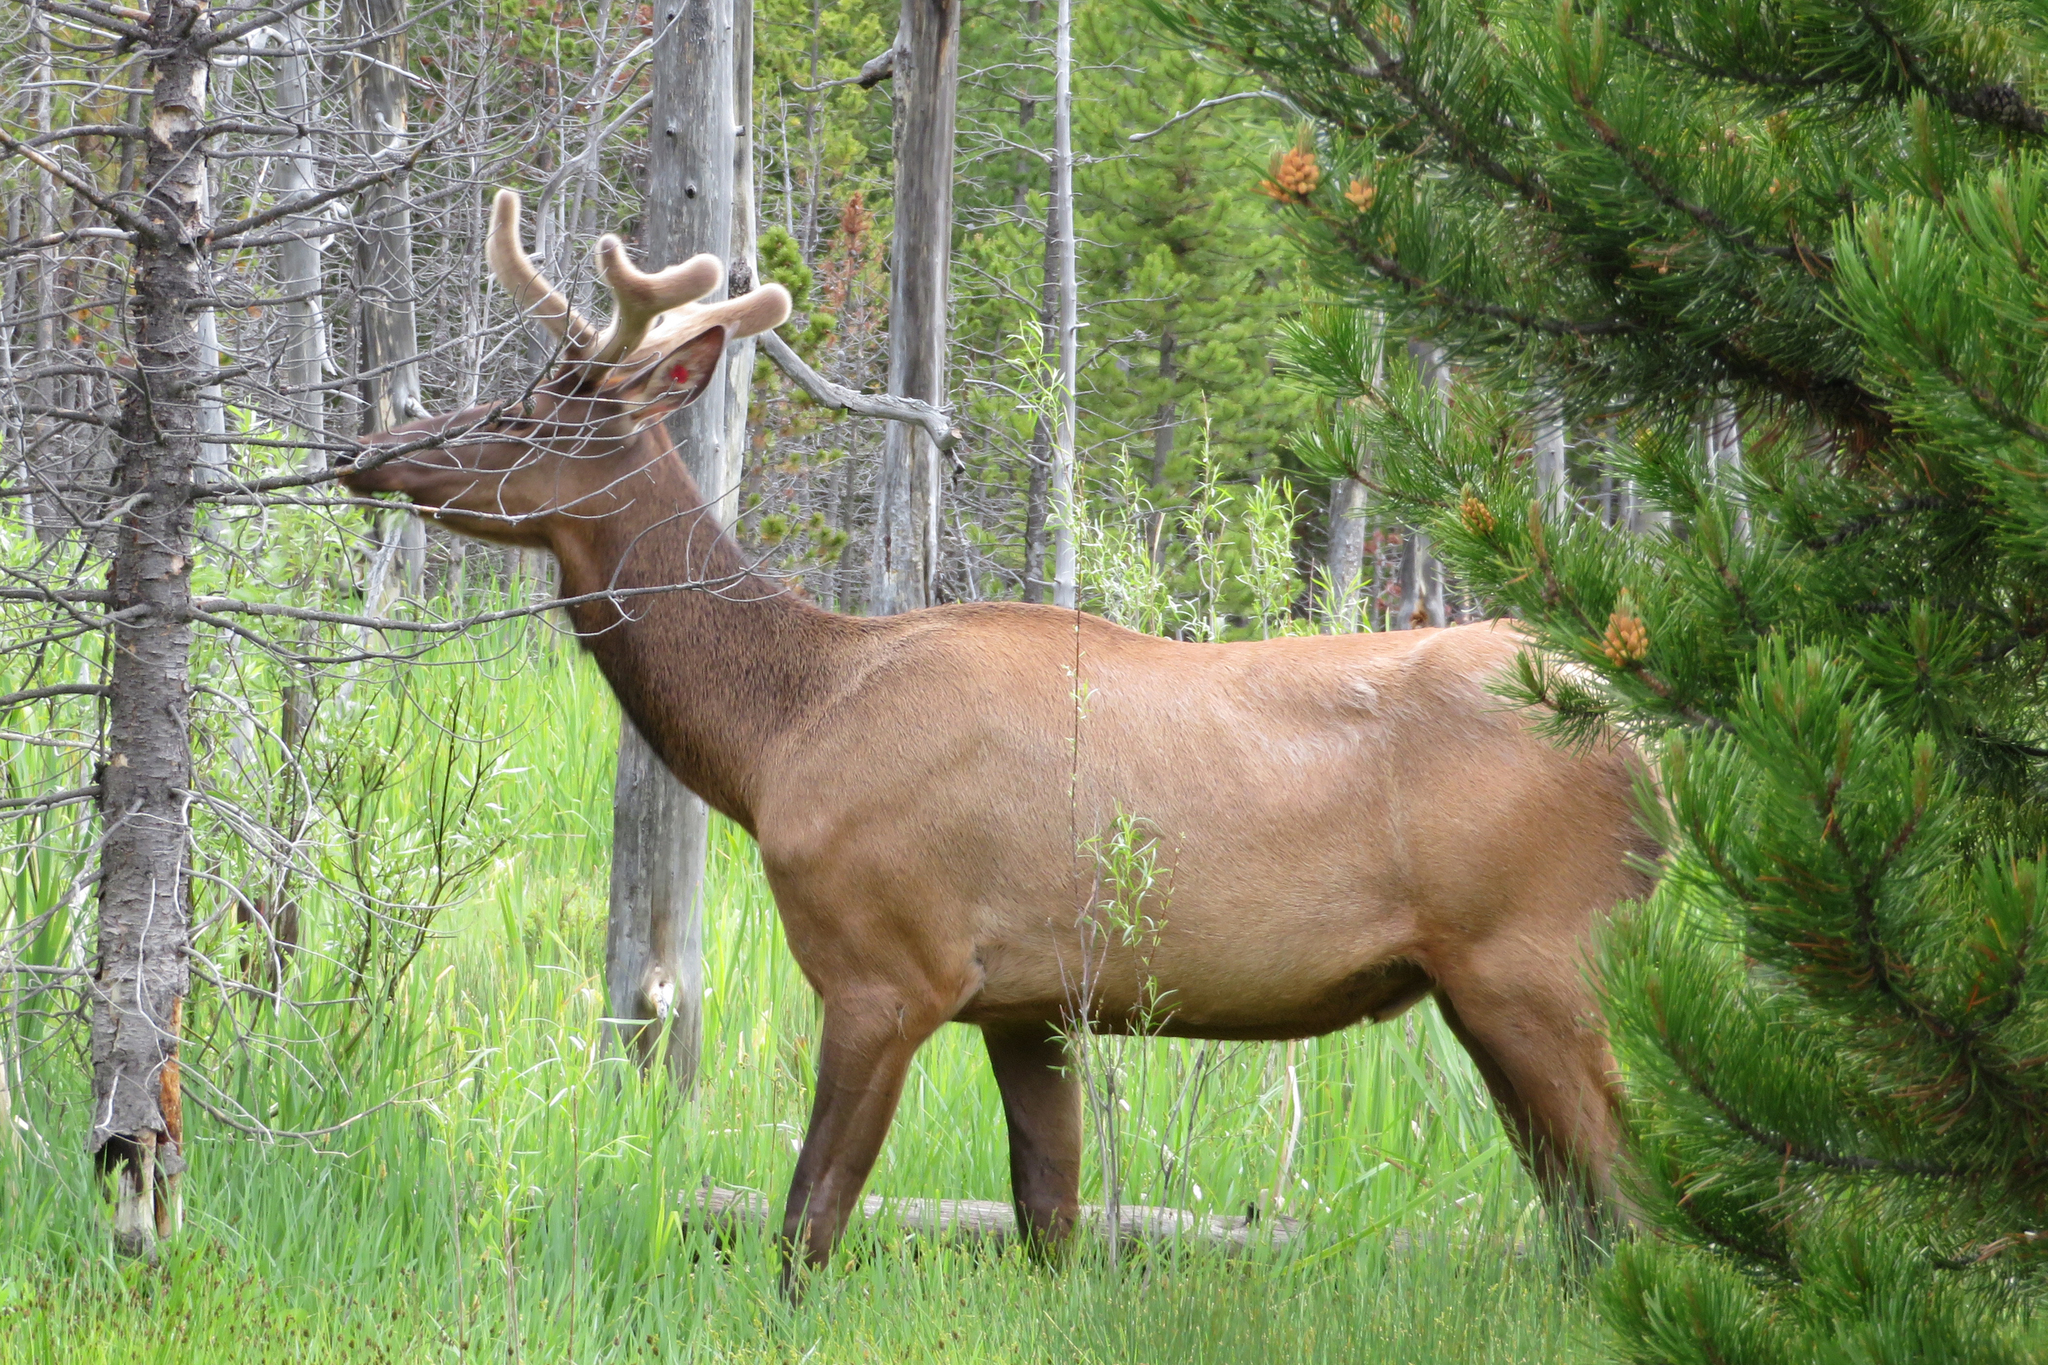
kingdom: Animalia
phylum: Chordata
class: Mammalia
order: Artiodactyla
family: Cervidae
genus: Cervus
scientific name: Cervus elaphus
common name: Red deer
